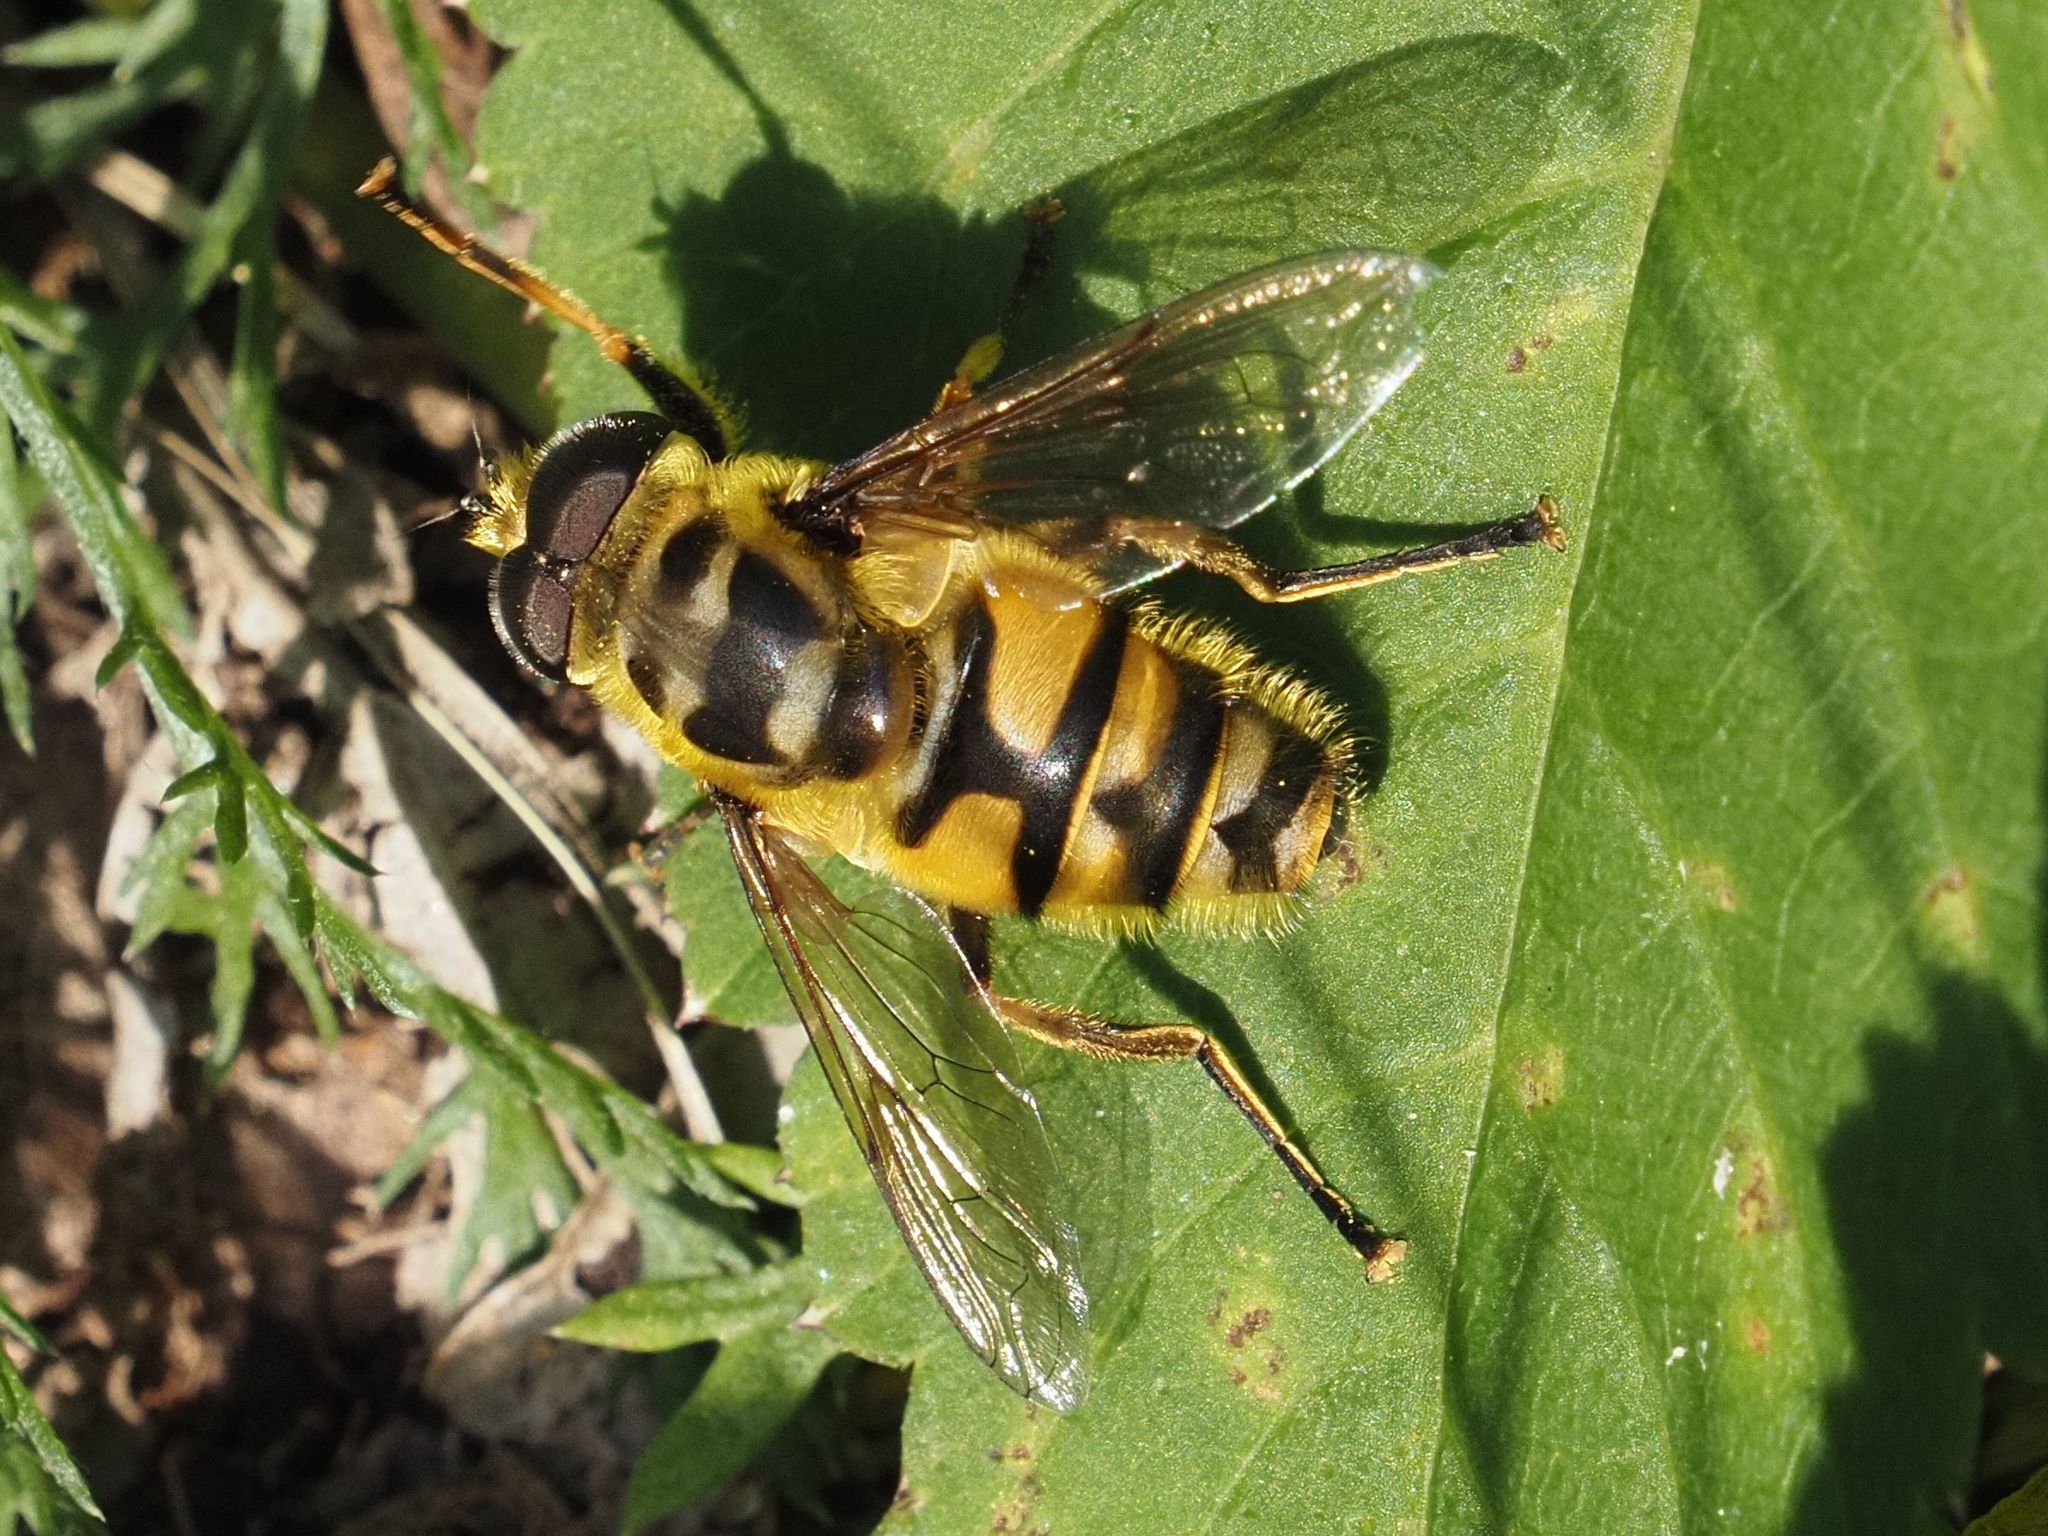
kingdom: Animalia
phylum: Arthropoda
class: Insecta
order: Diptera
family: Syrphidae
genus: Myathropa
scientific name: Myathropa florea
